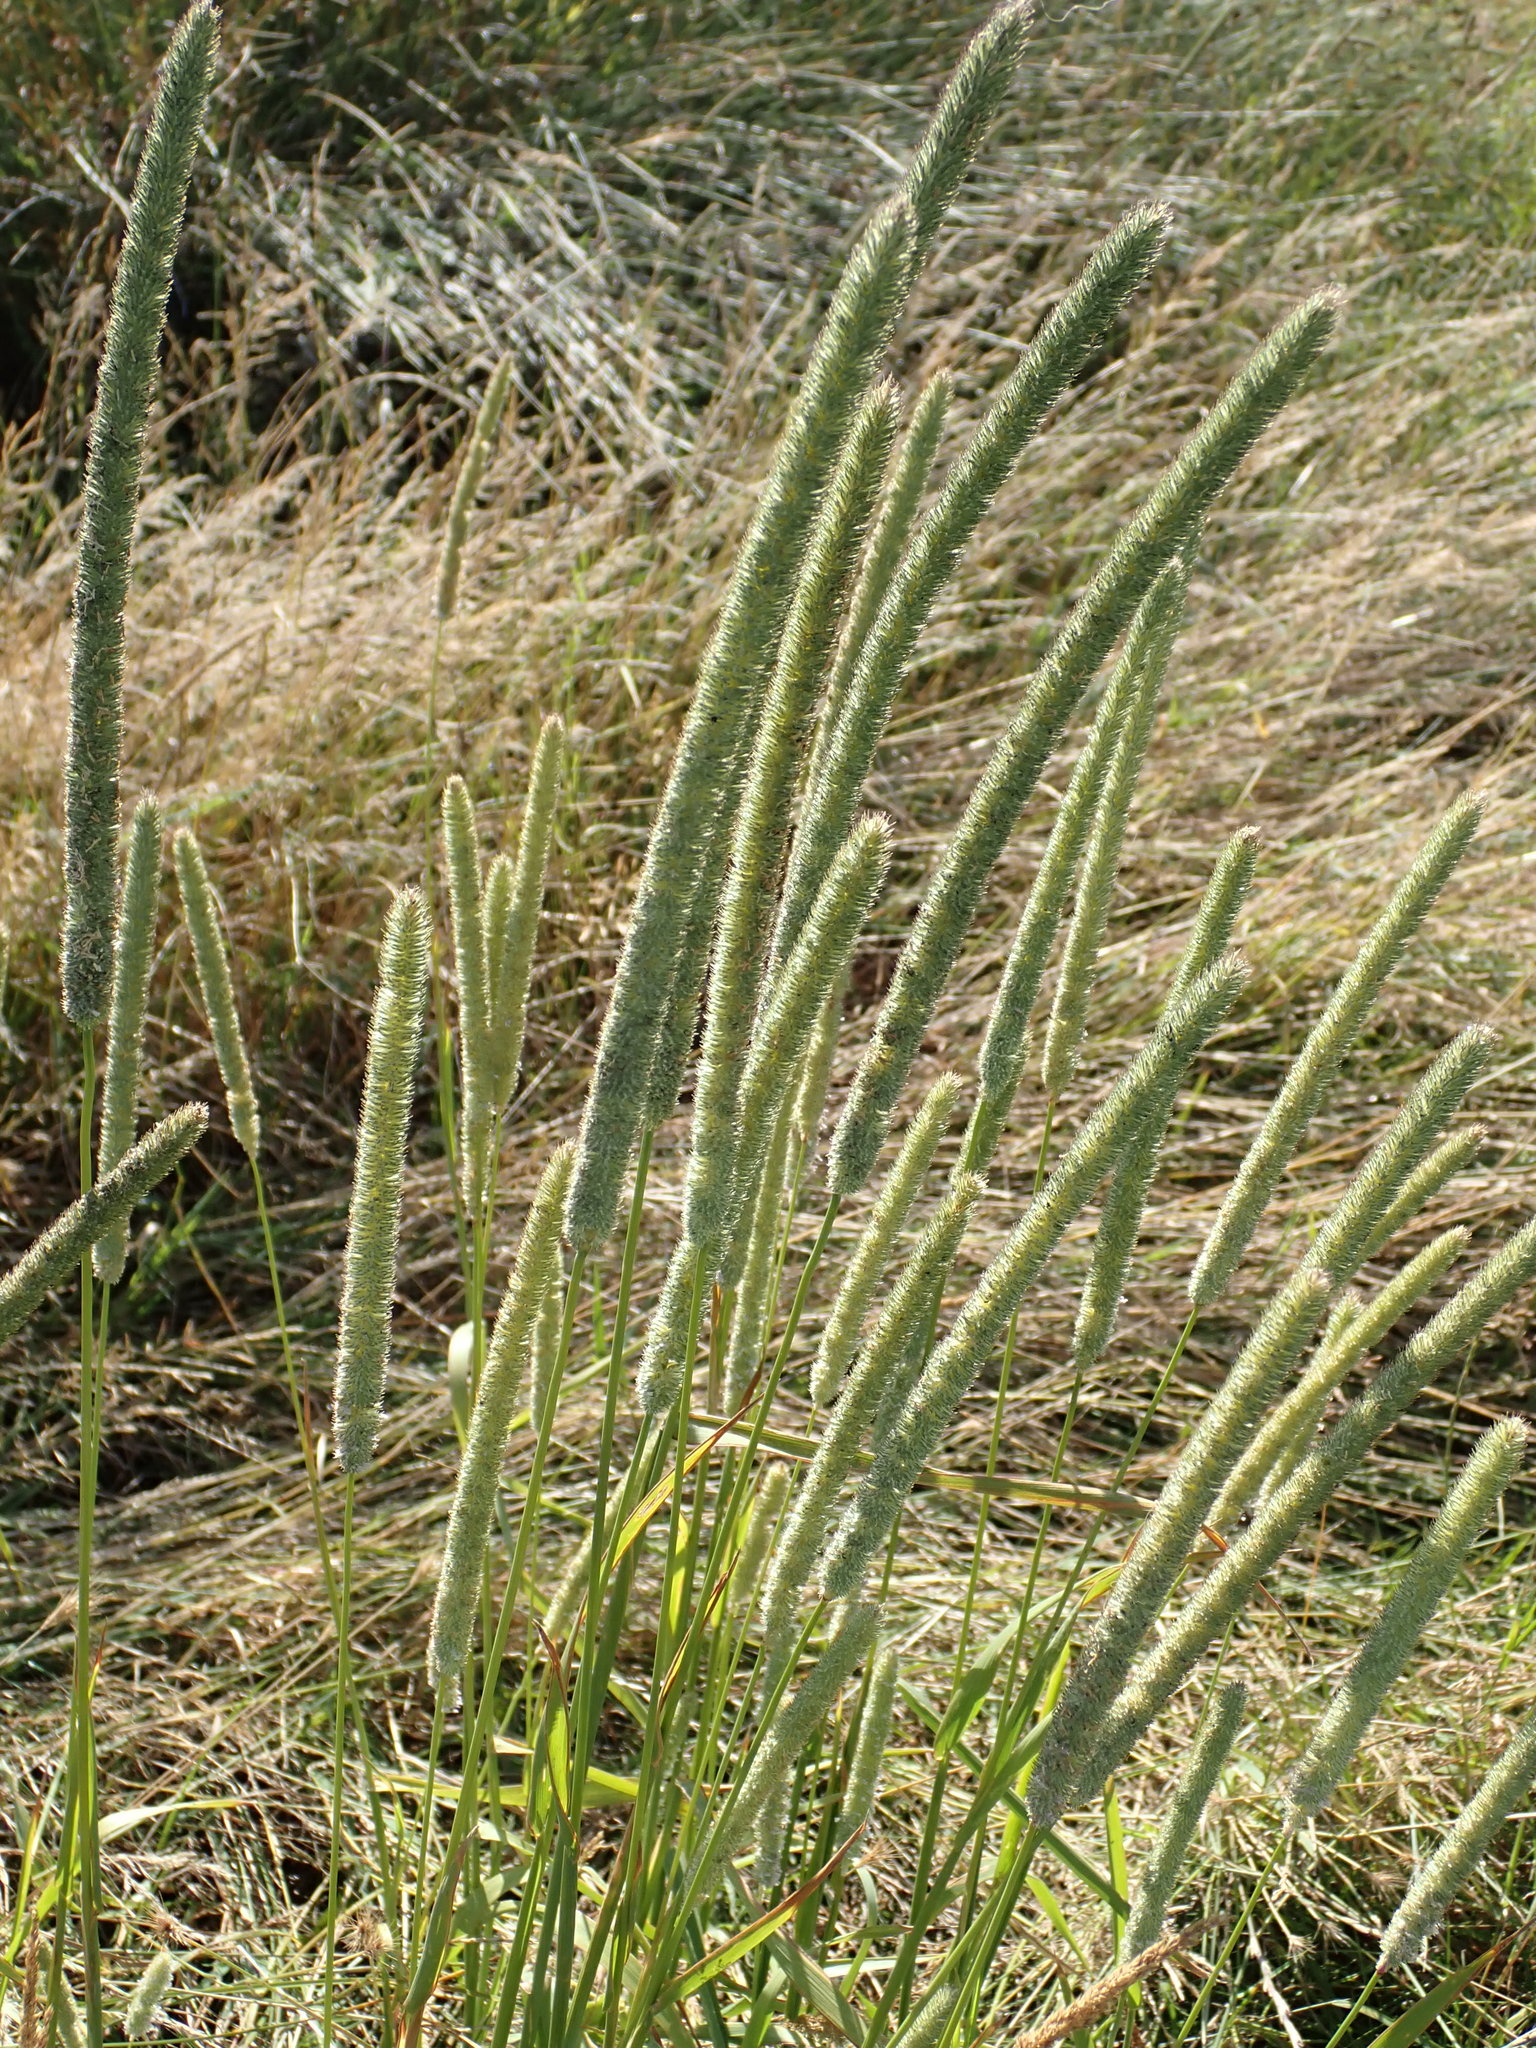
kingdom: Plantae
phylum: Tracheophyta
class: Liliopsida
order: Poales
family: Poaceae
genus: Phleum
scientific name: Phleum pratense
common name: Timothy grass
